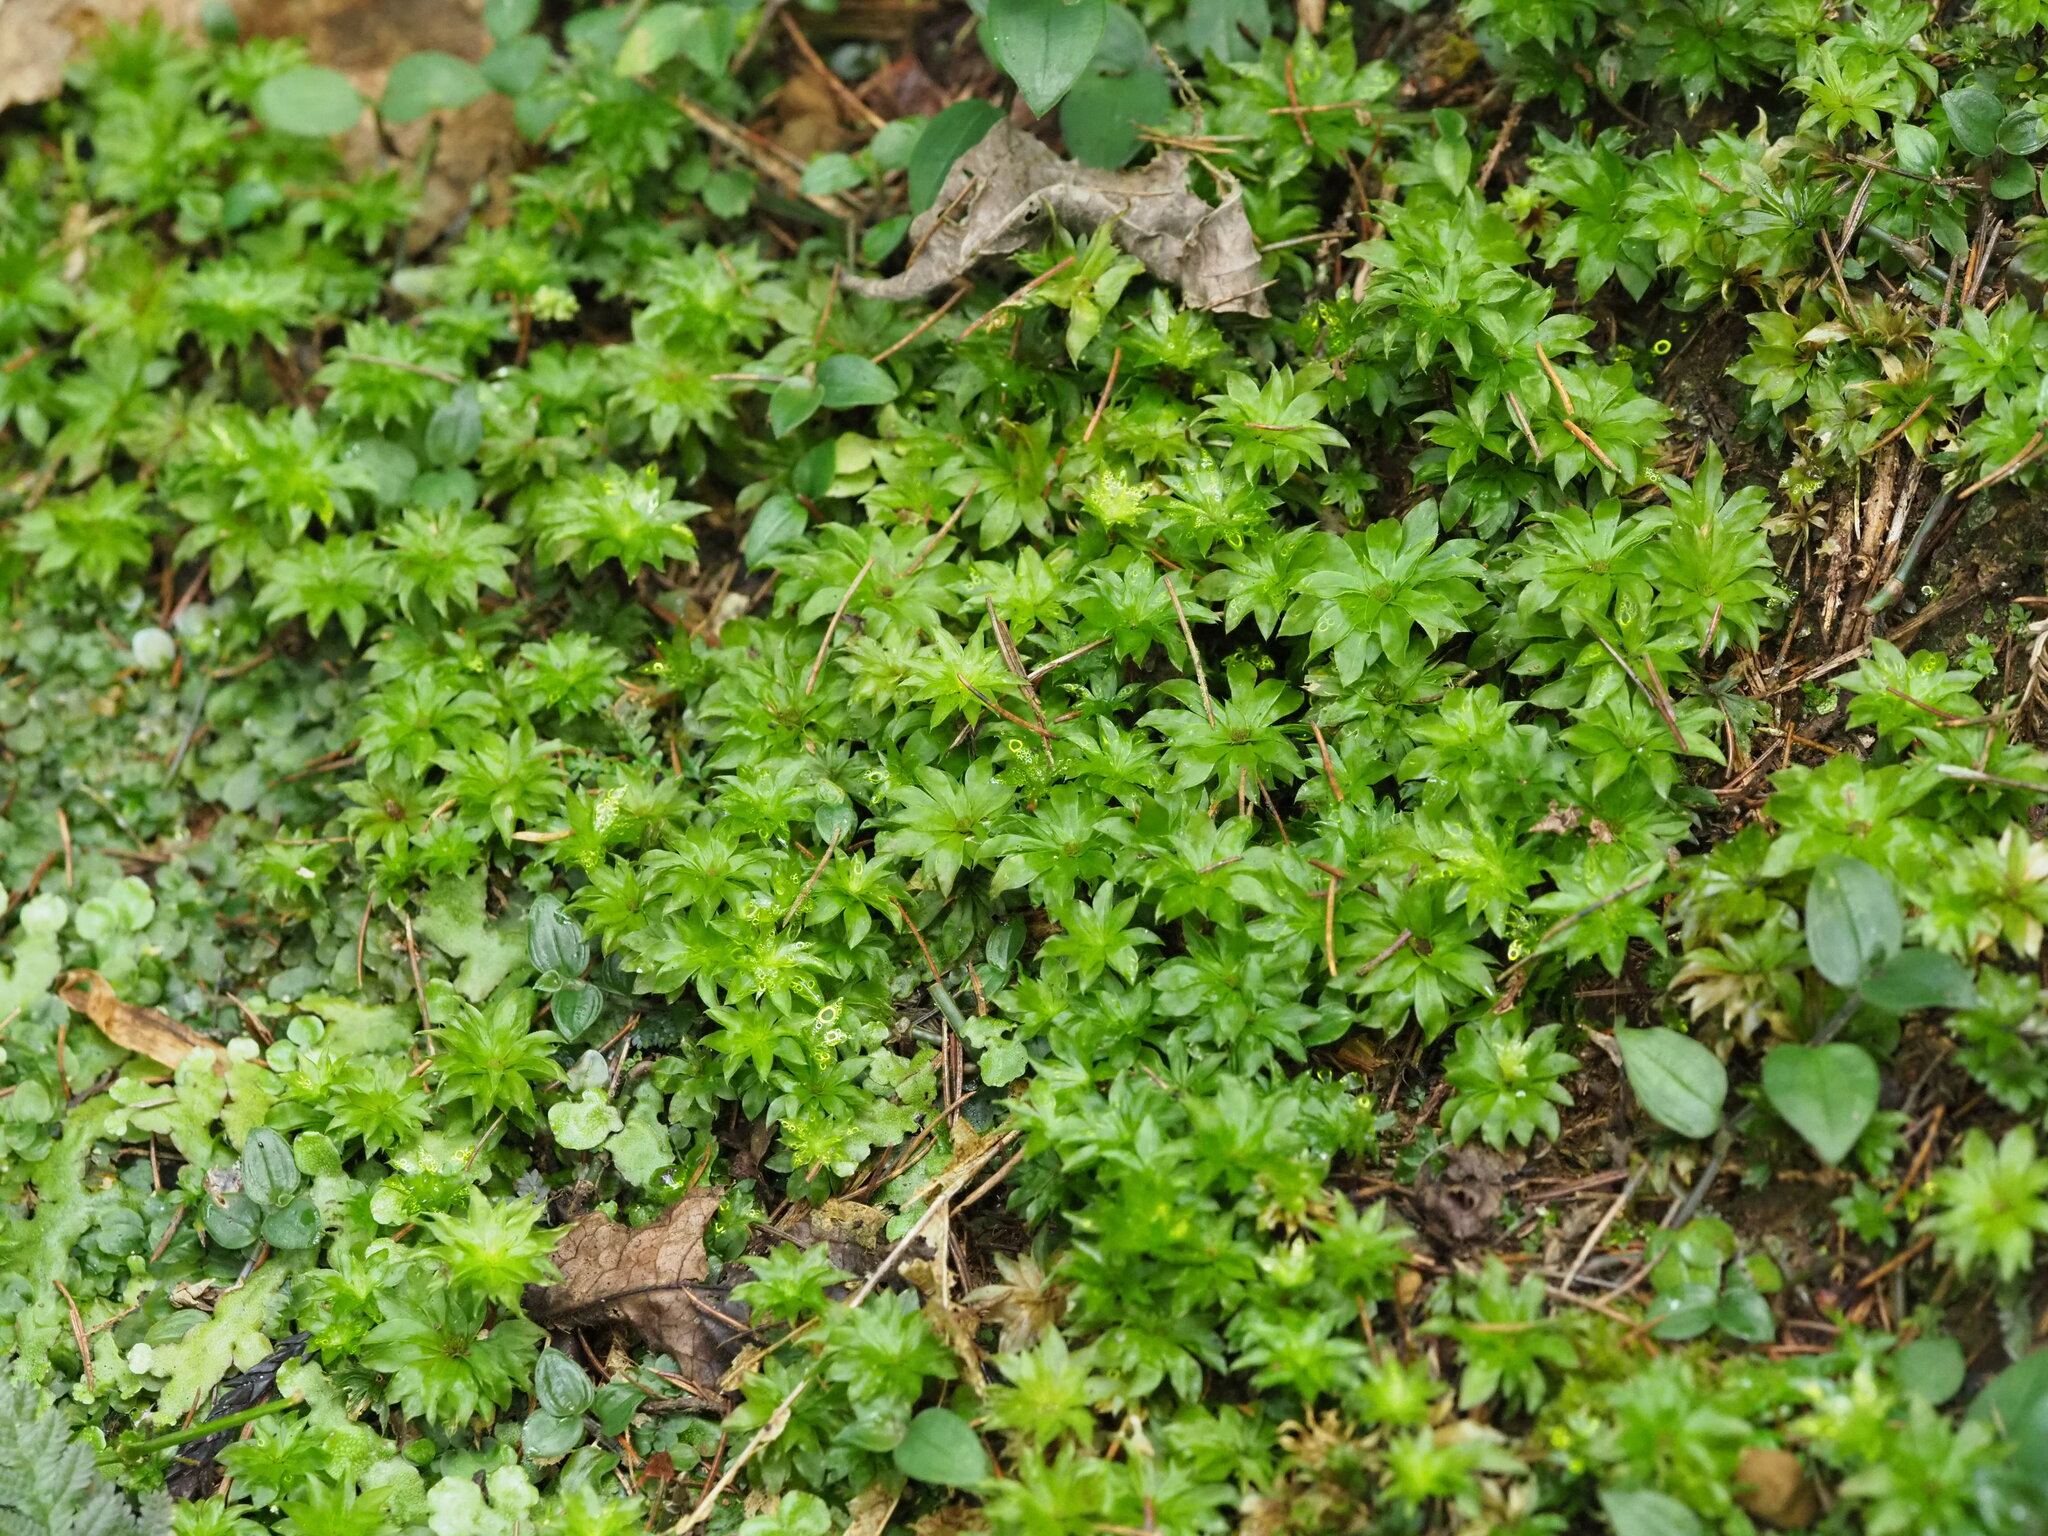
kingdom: Plantae
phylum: Bryophyta
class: Bryopsida
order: Bryales
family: Bryaceae
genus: Rhodobryum
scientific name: Rhodobryum giganteum
